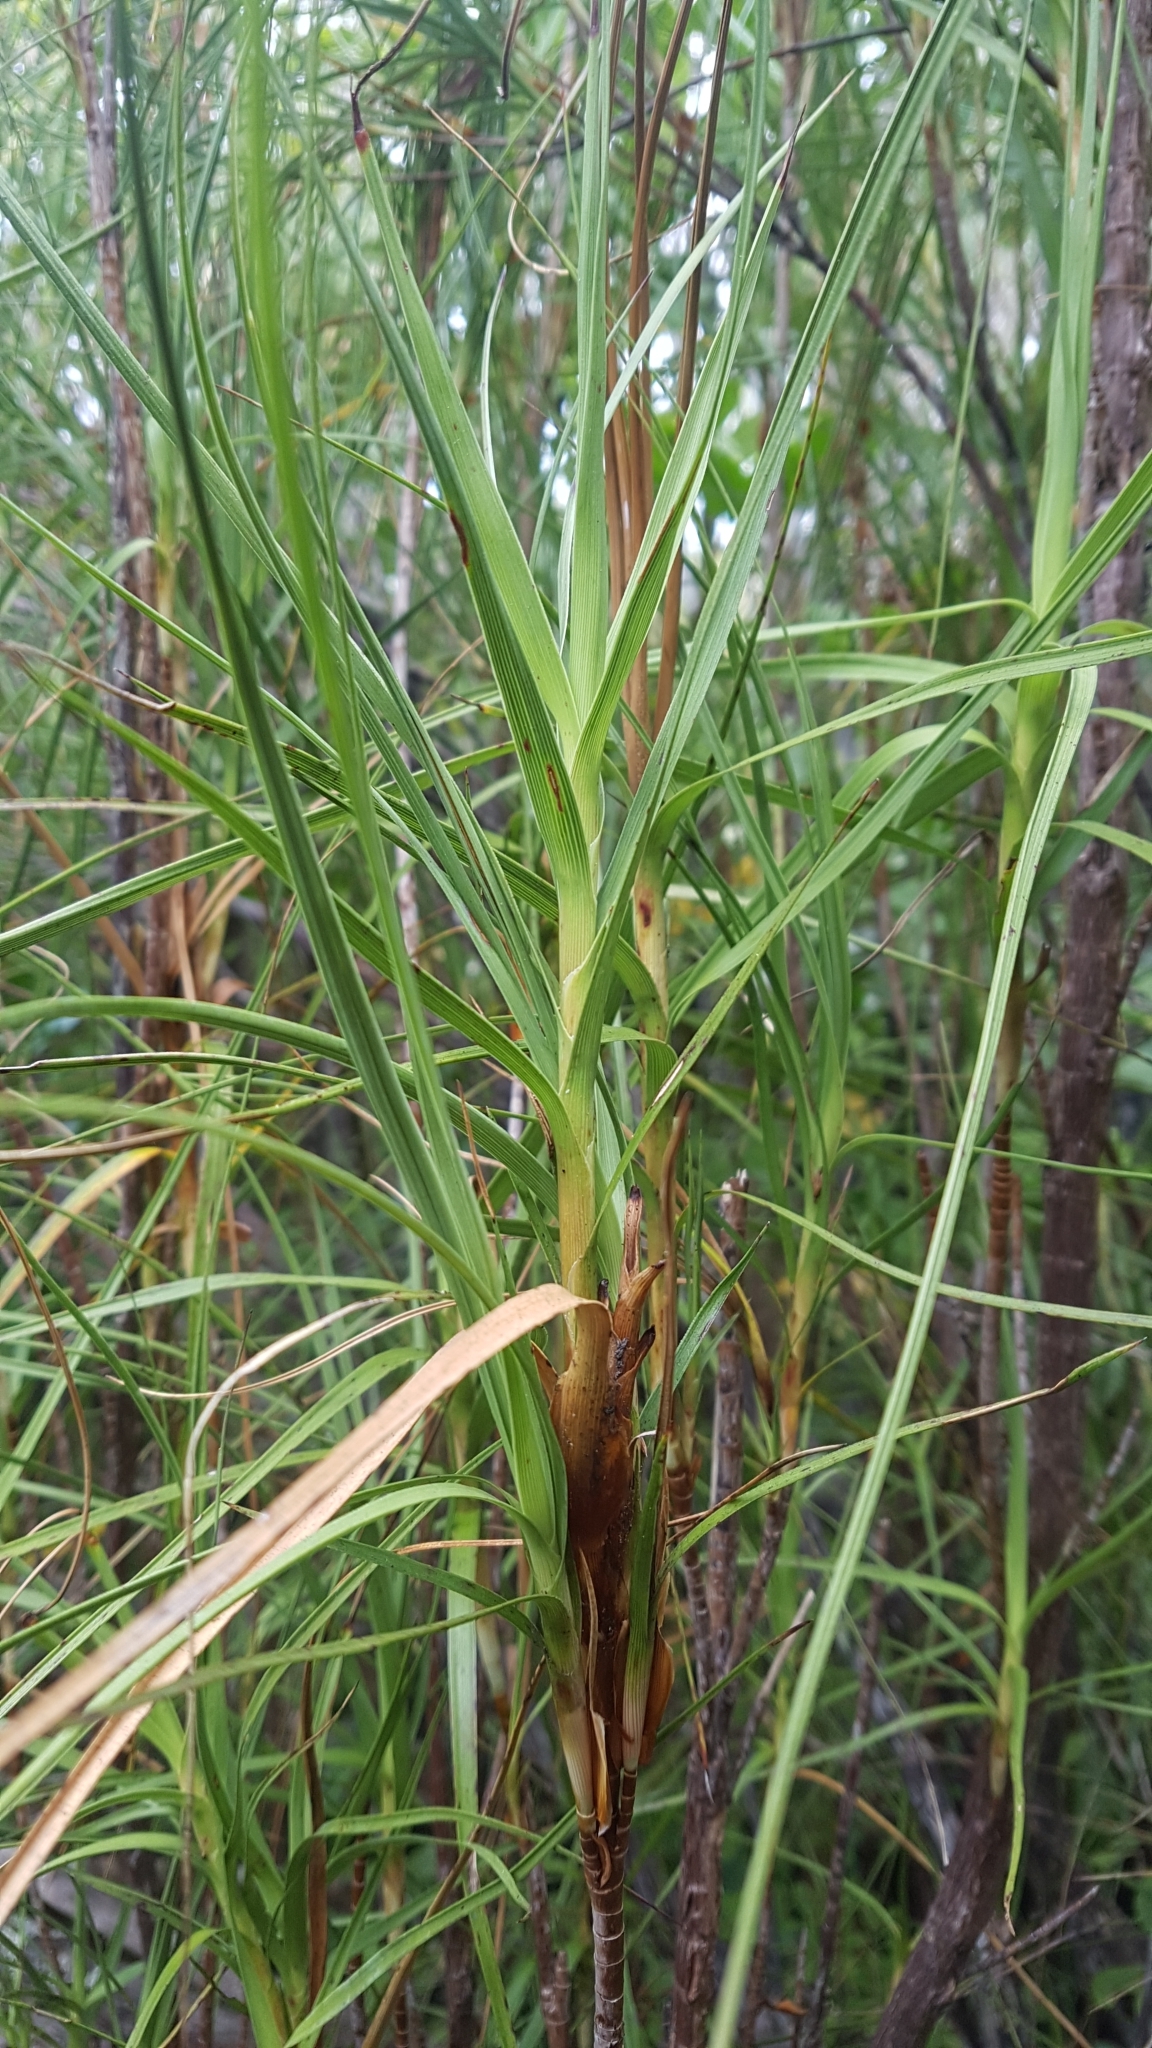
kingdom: Plantae
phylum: Tracheophyta
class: Magnoliopsida
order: Ericales
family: Ericaceae
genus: Dracophyllum
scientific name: Dracophyllum longifolium
